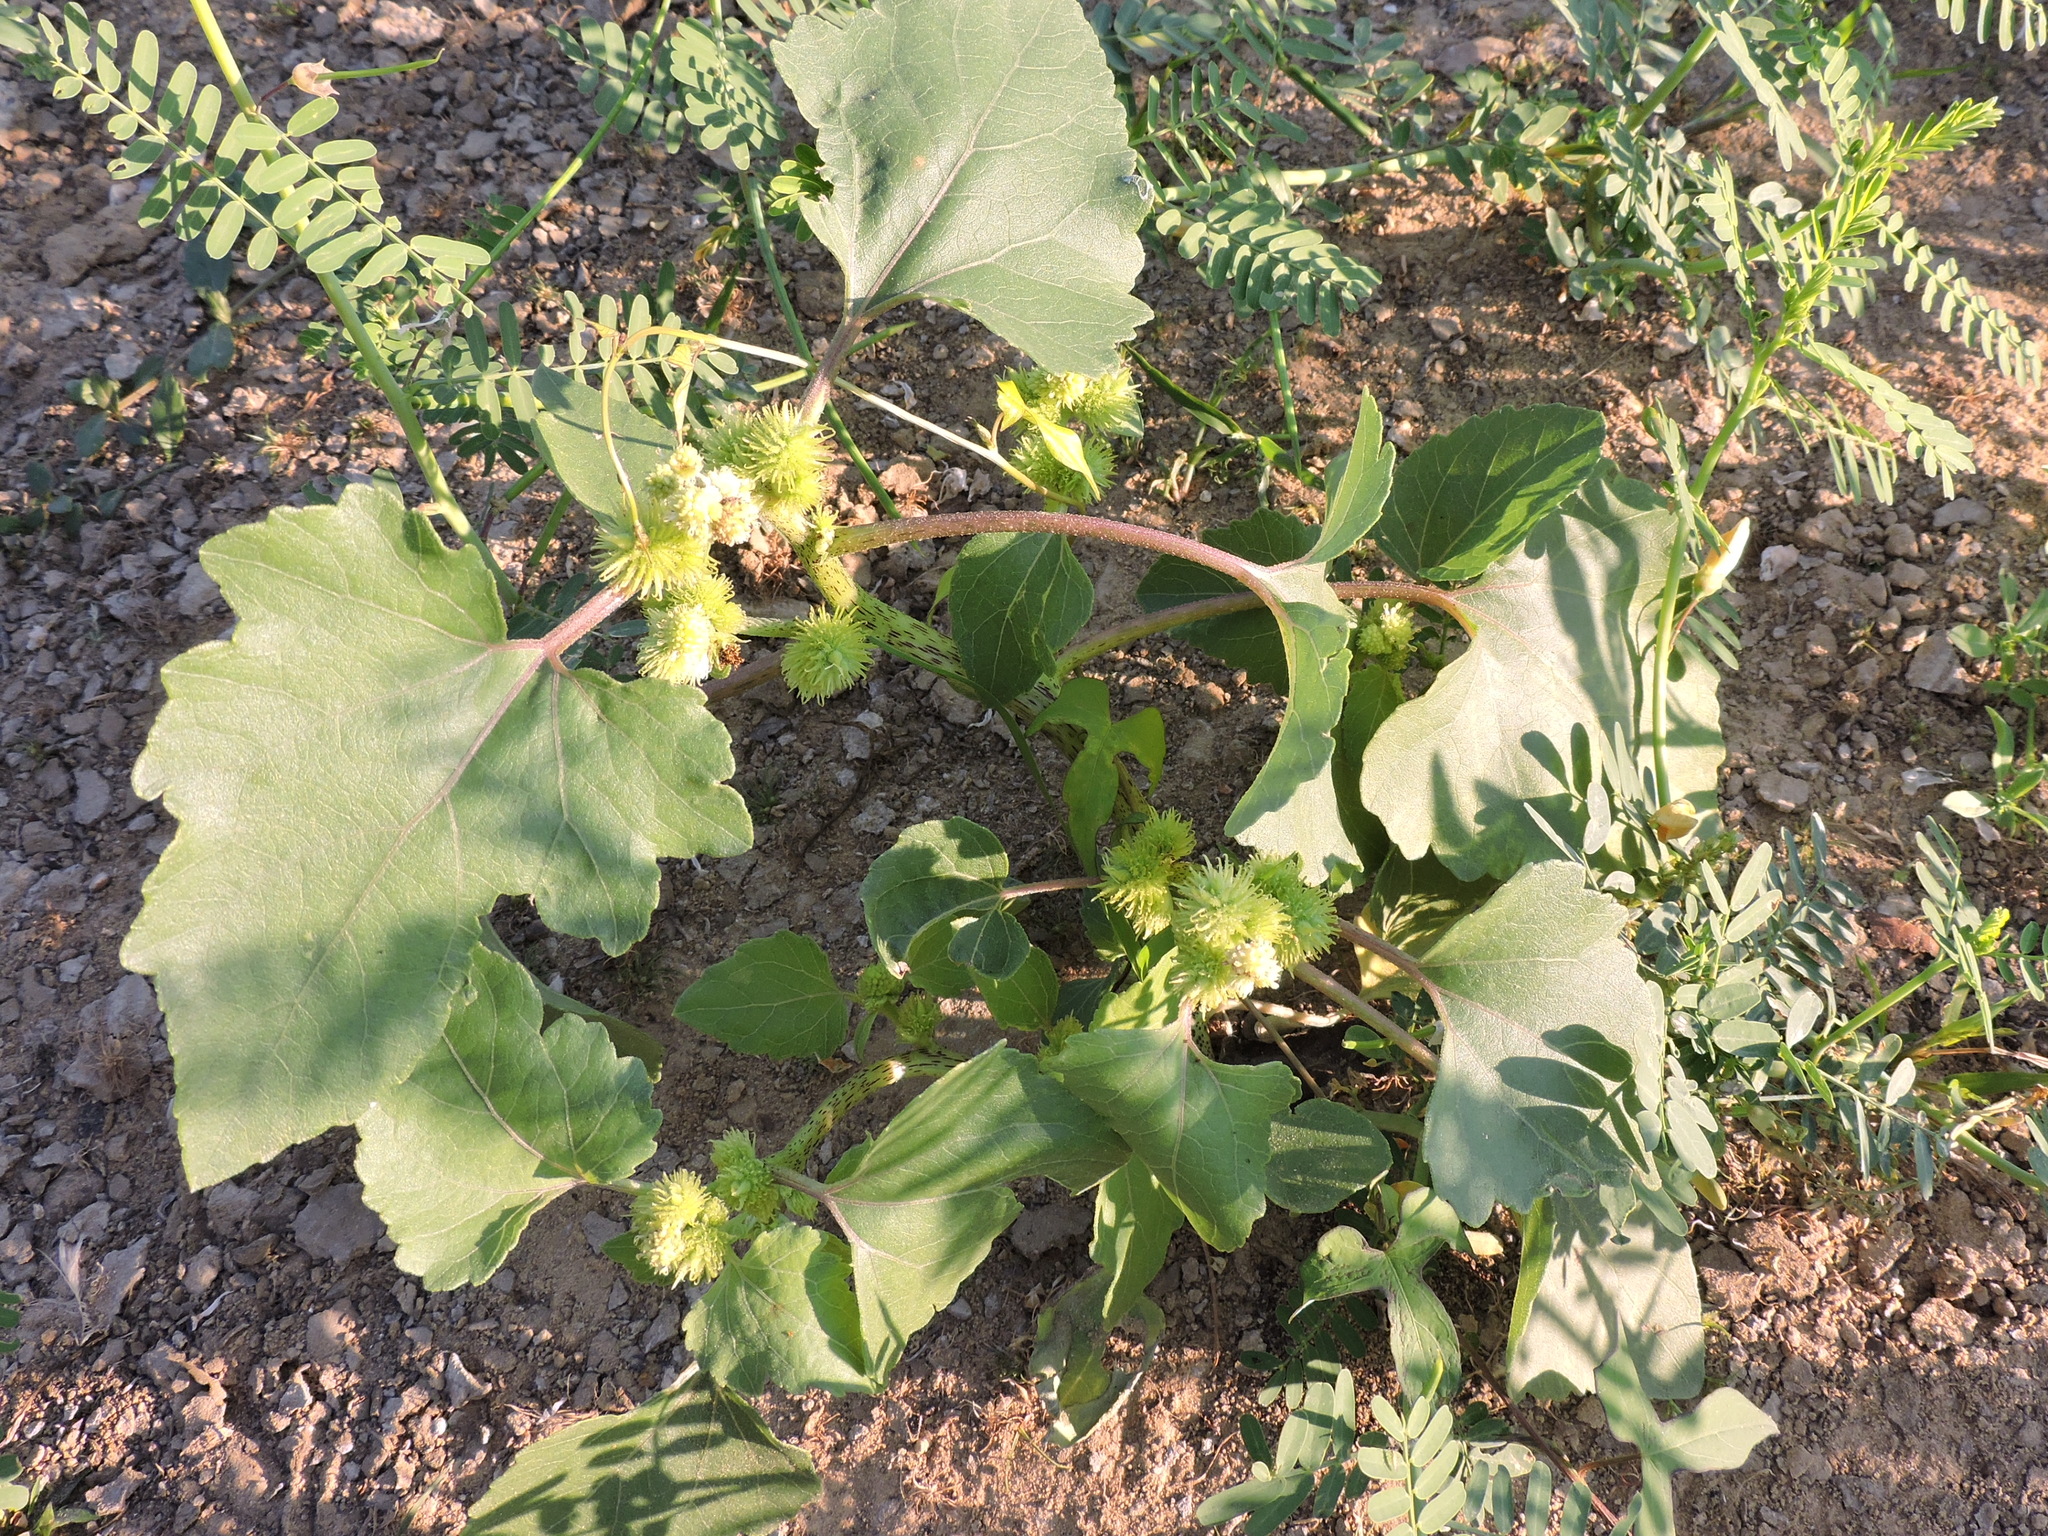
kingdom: Plantae
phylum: Tracheophyta
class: Magnoliopsida
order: Asterales
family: Asteraceae
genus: Xanthium
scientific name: Xanthium strumarium
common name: Rough cocklebur
